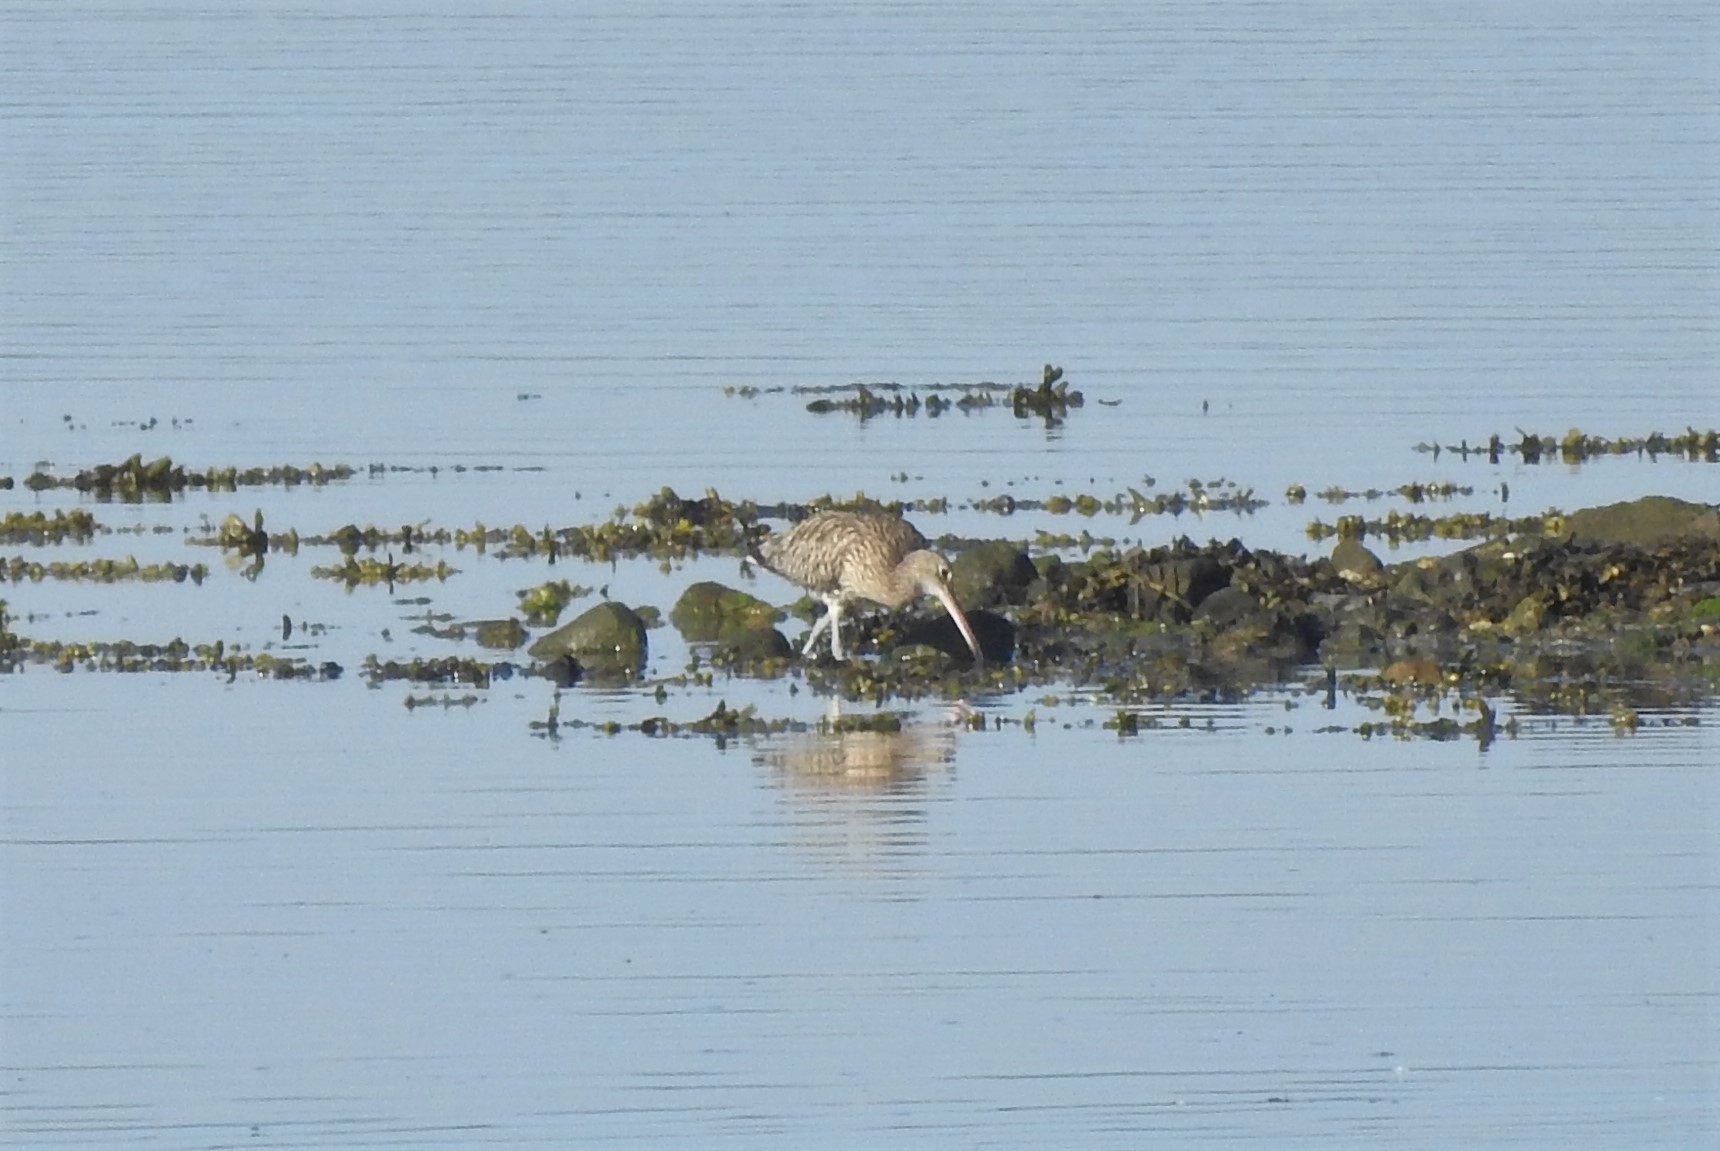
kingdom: Animalia
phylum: Chordata
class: Aves
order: Charadriiformes
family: Scolopacidae
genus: Numenius
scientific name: Numenius arquata
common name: Eurasian curlew
